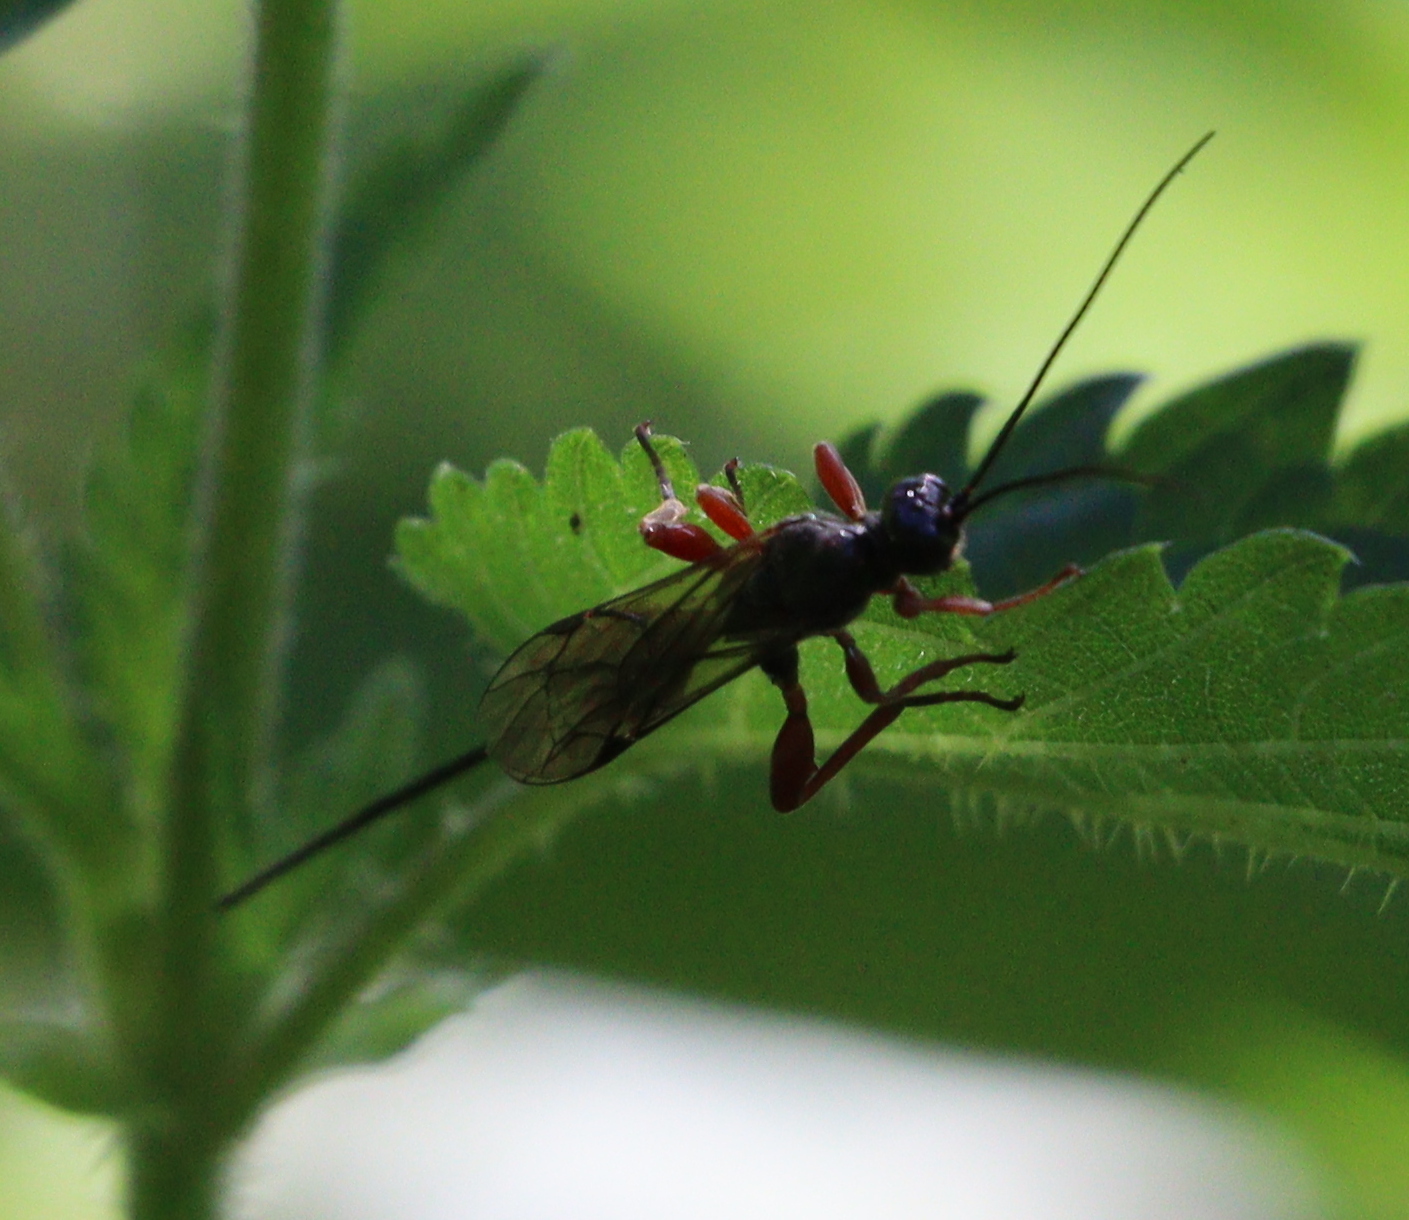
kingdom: Animalia
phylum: Arthropoda
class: Insecta
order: Hymenoptera
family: Ichneumonidae
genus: Odontocolon
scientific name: Odontocolon dentipes
